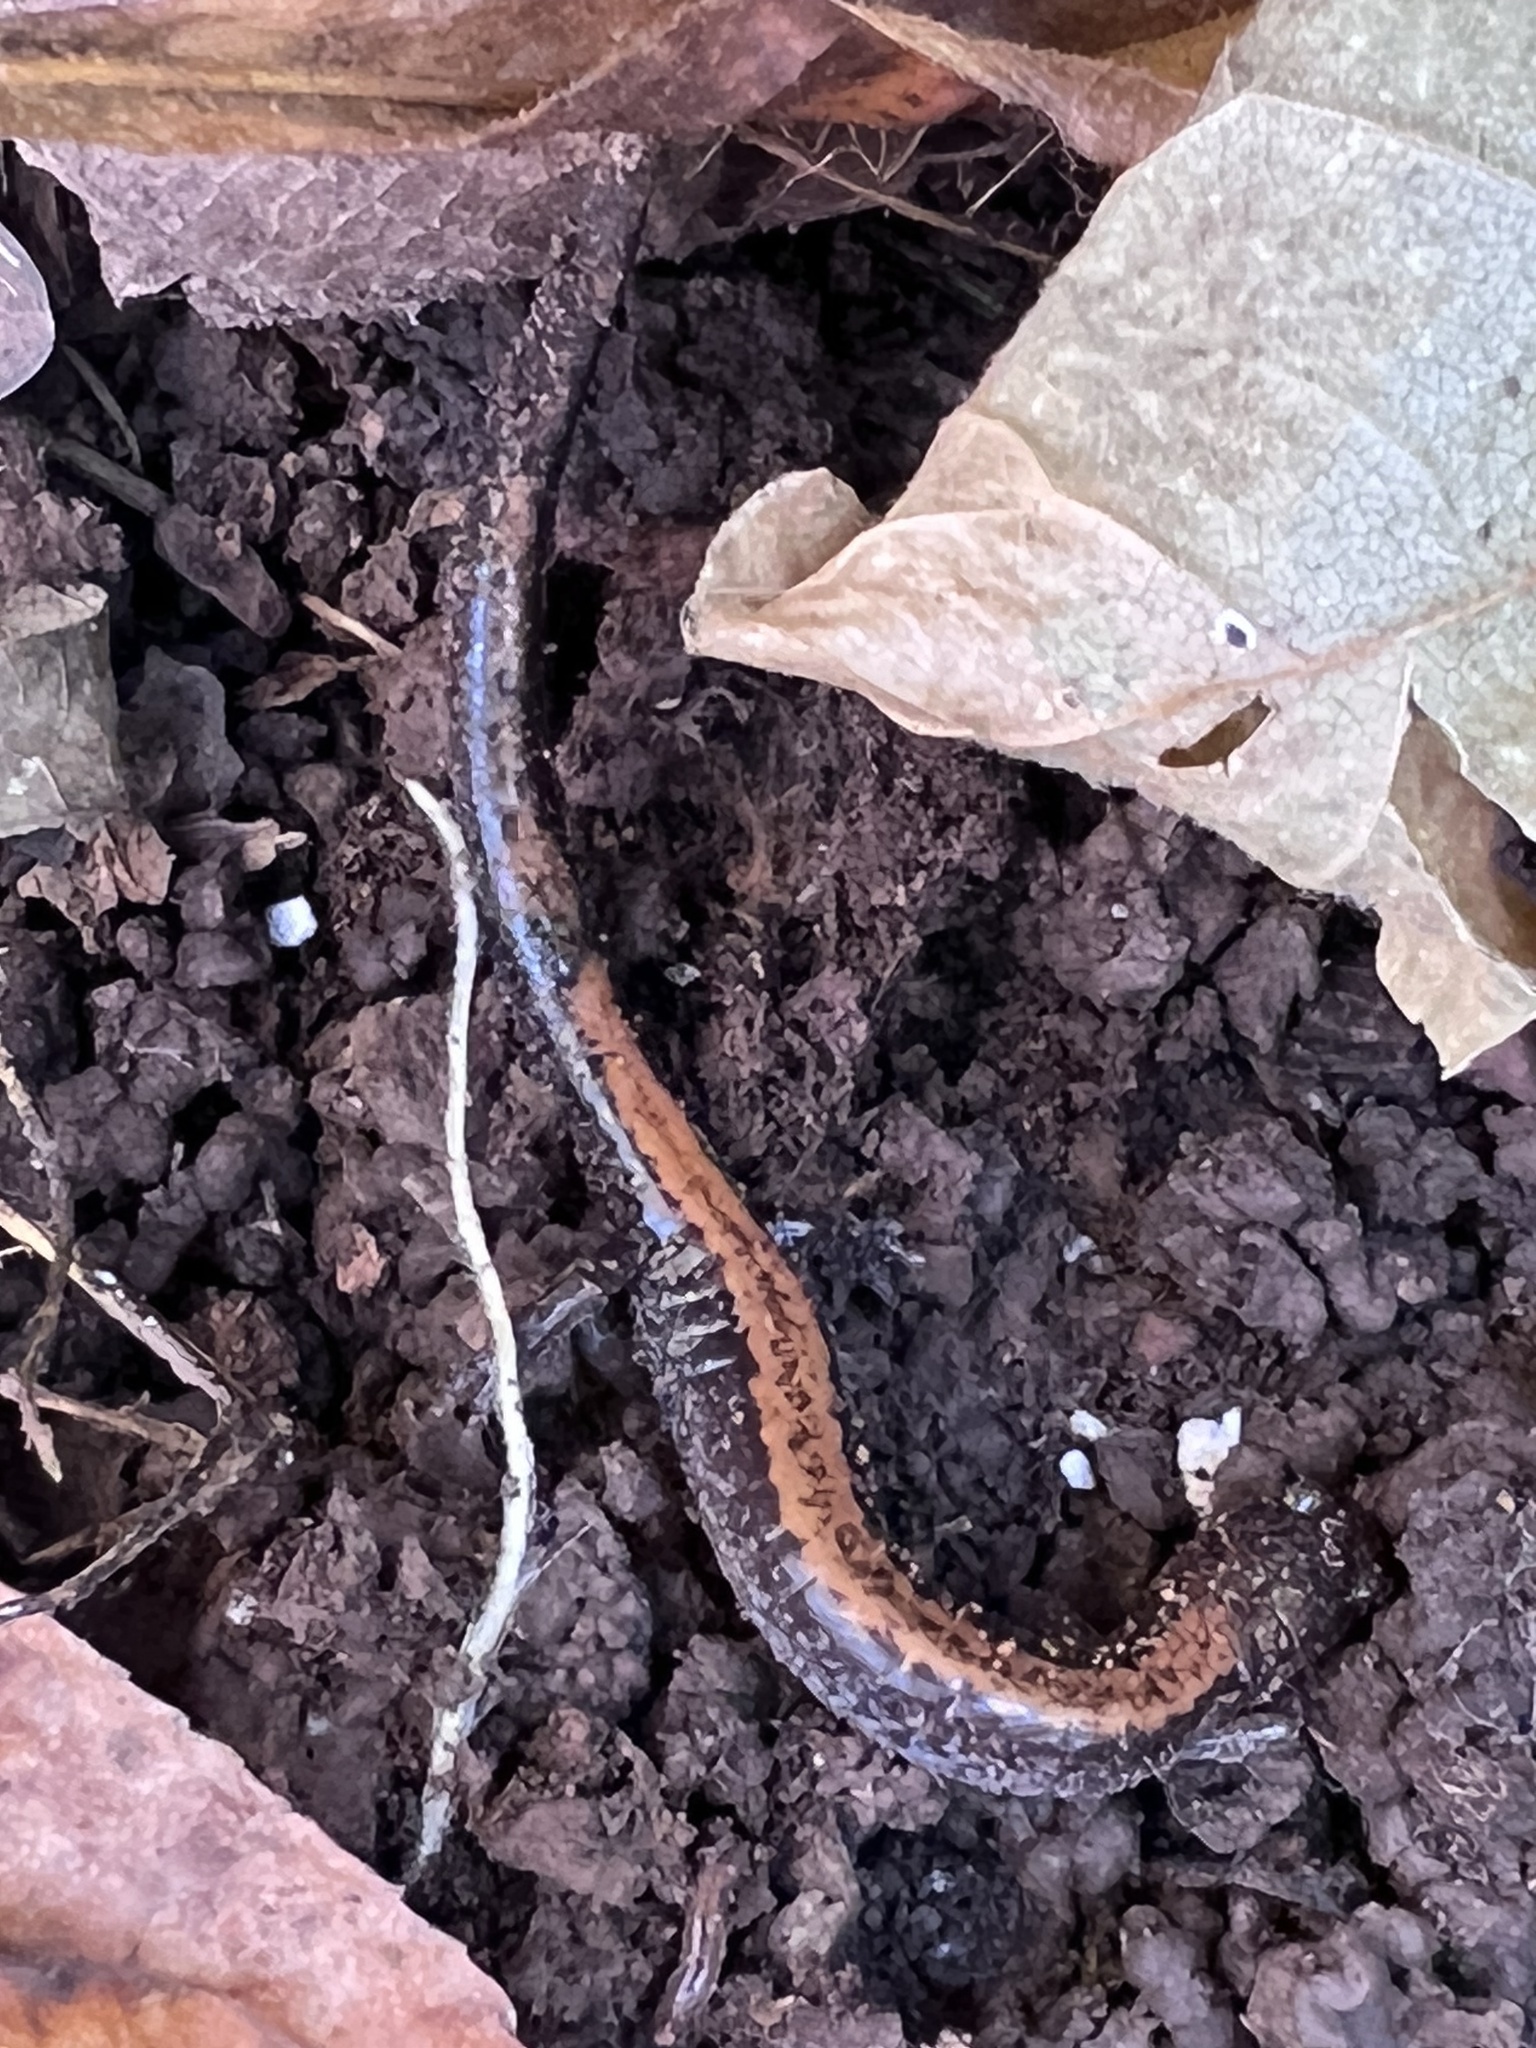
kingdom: Animalia
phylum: Chordata
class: Amphibia
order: Caudata
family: Plethodontidae
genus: Plethodon
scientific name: Plethodon cinereus
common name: Redback salamander
